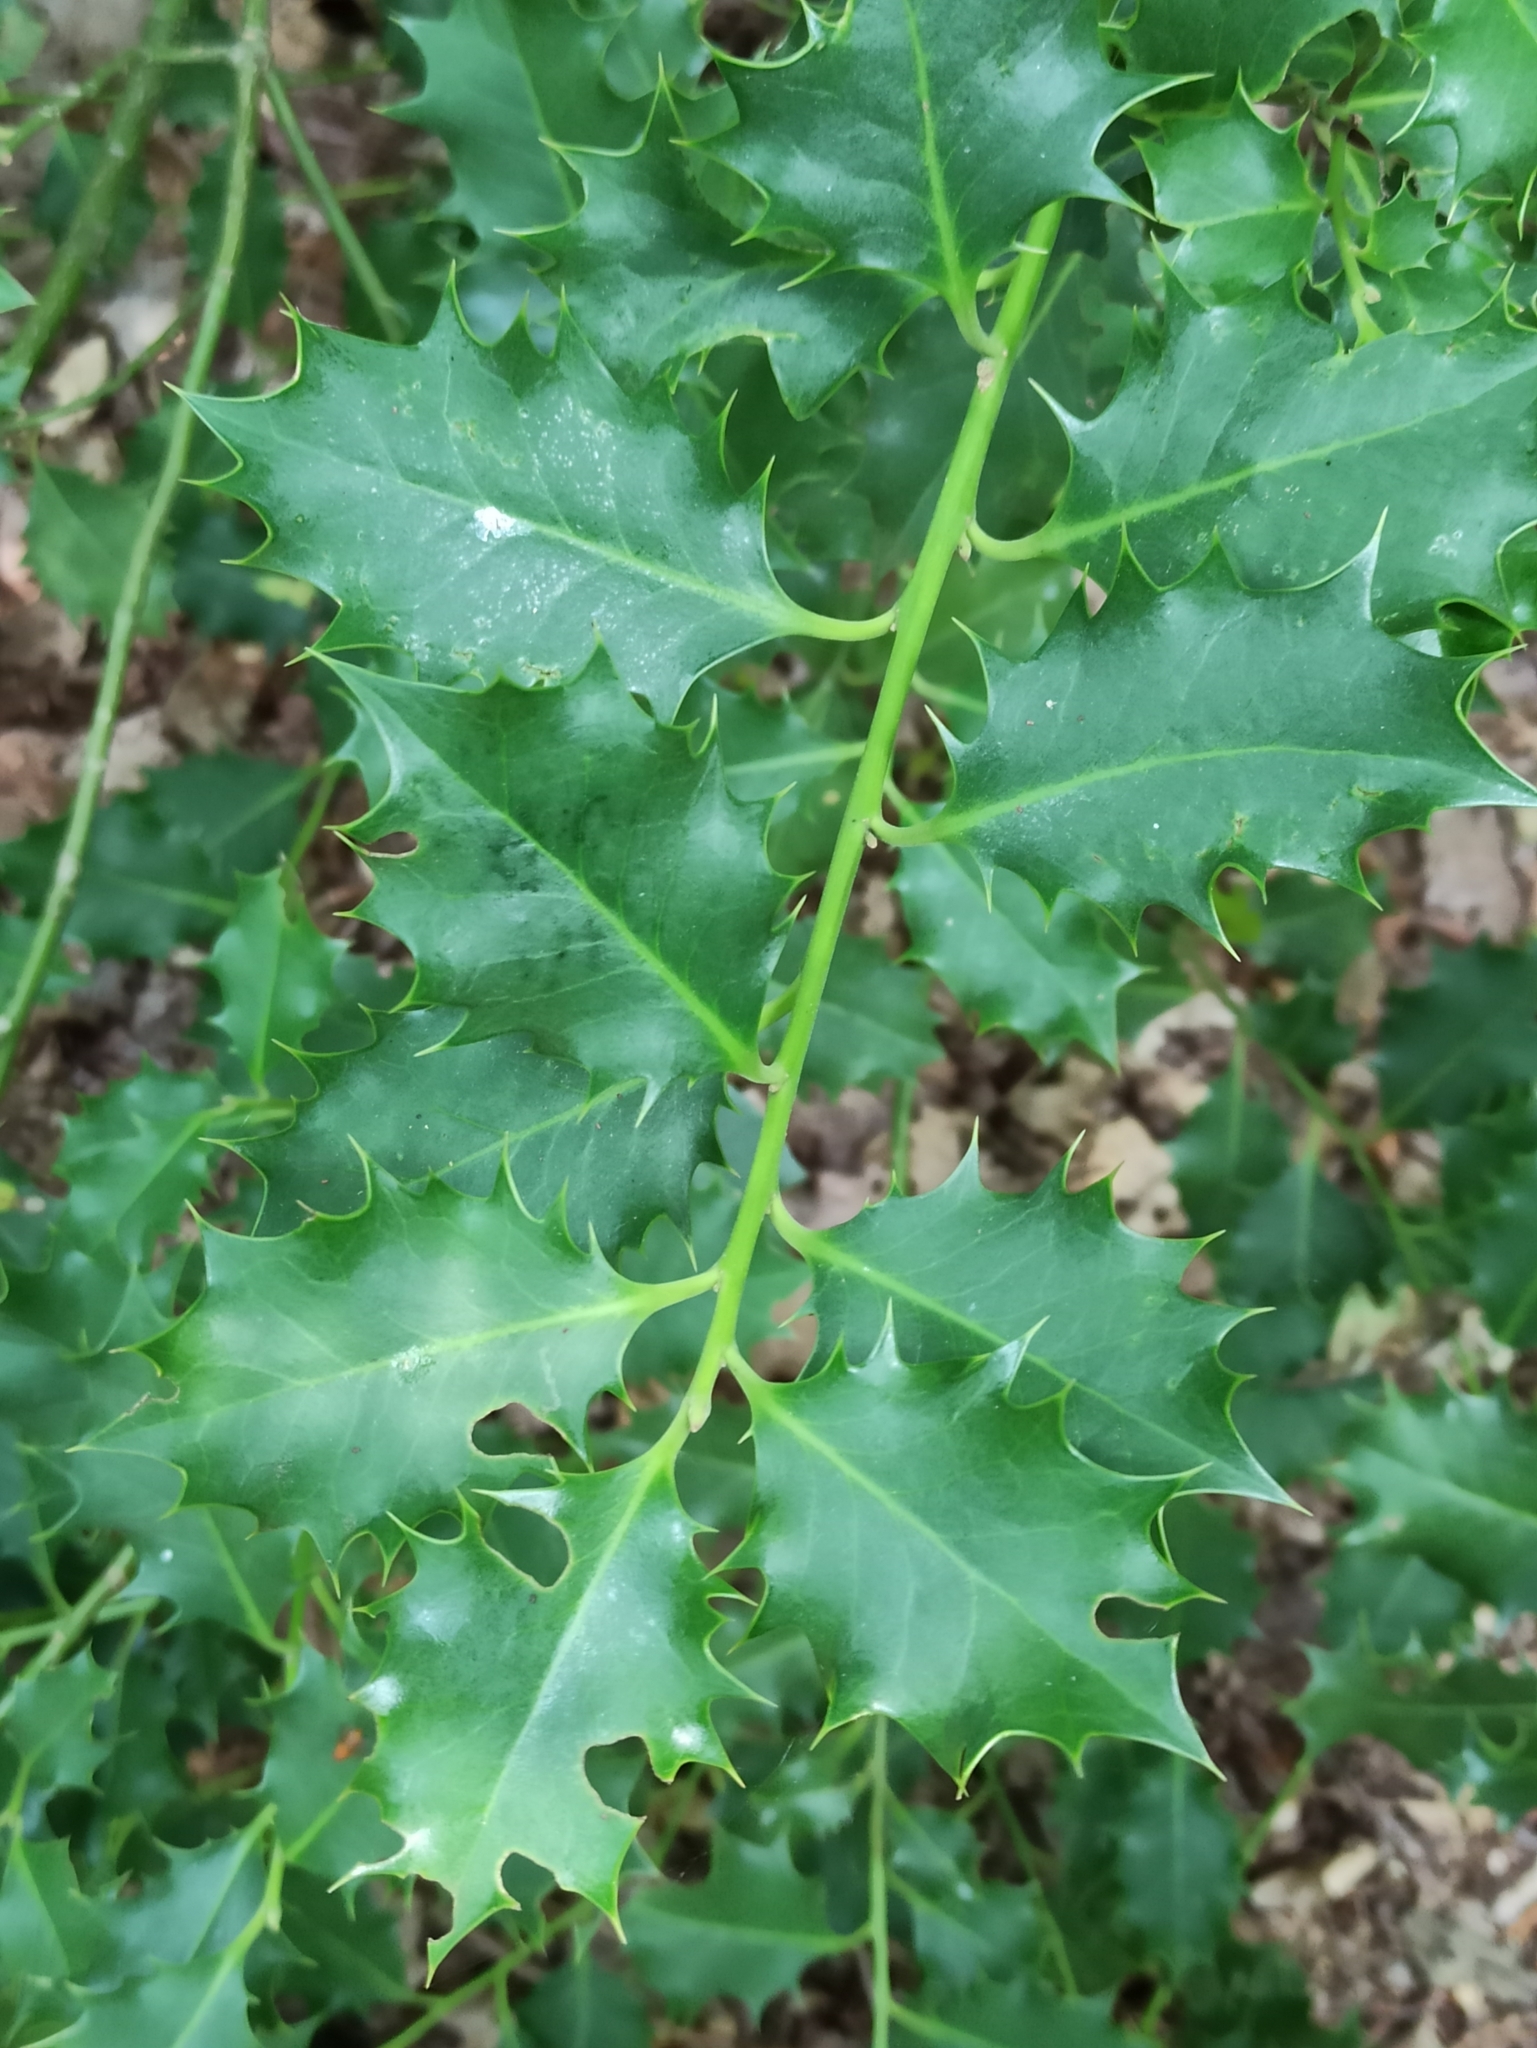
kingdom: Plantae
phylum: Tracheophyta
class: Magnoliopsida
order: Aquifoliales
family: Aquifoliaceae
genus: Ilex
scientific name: Ilex aquifolium
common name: English holly
